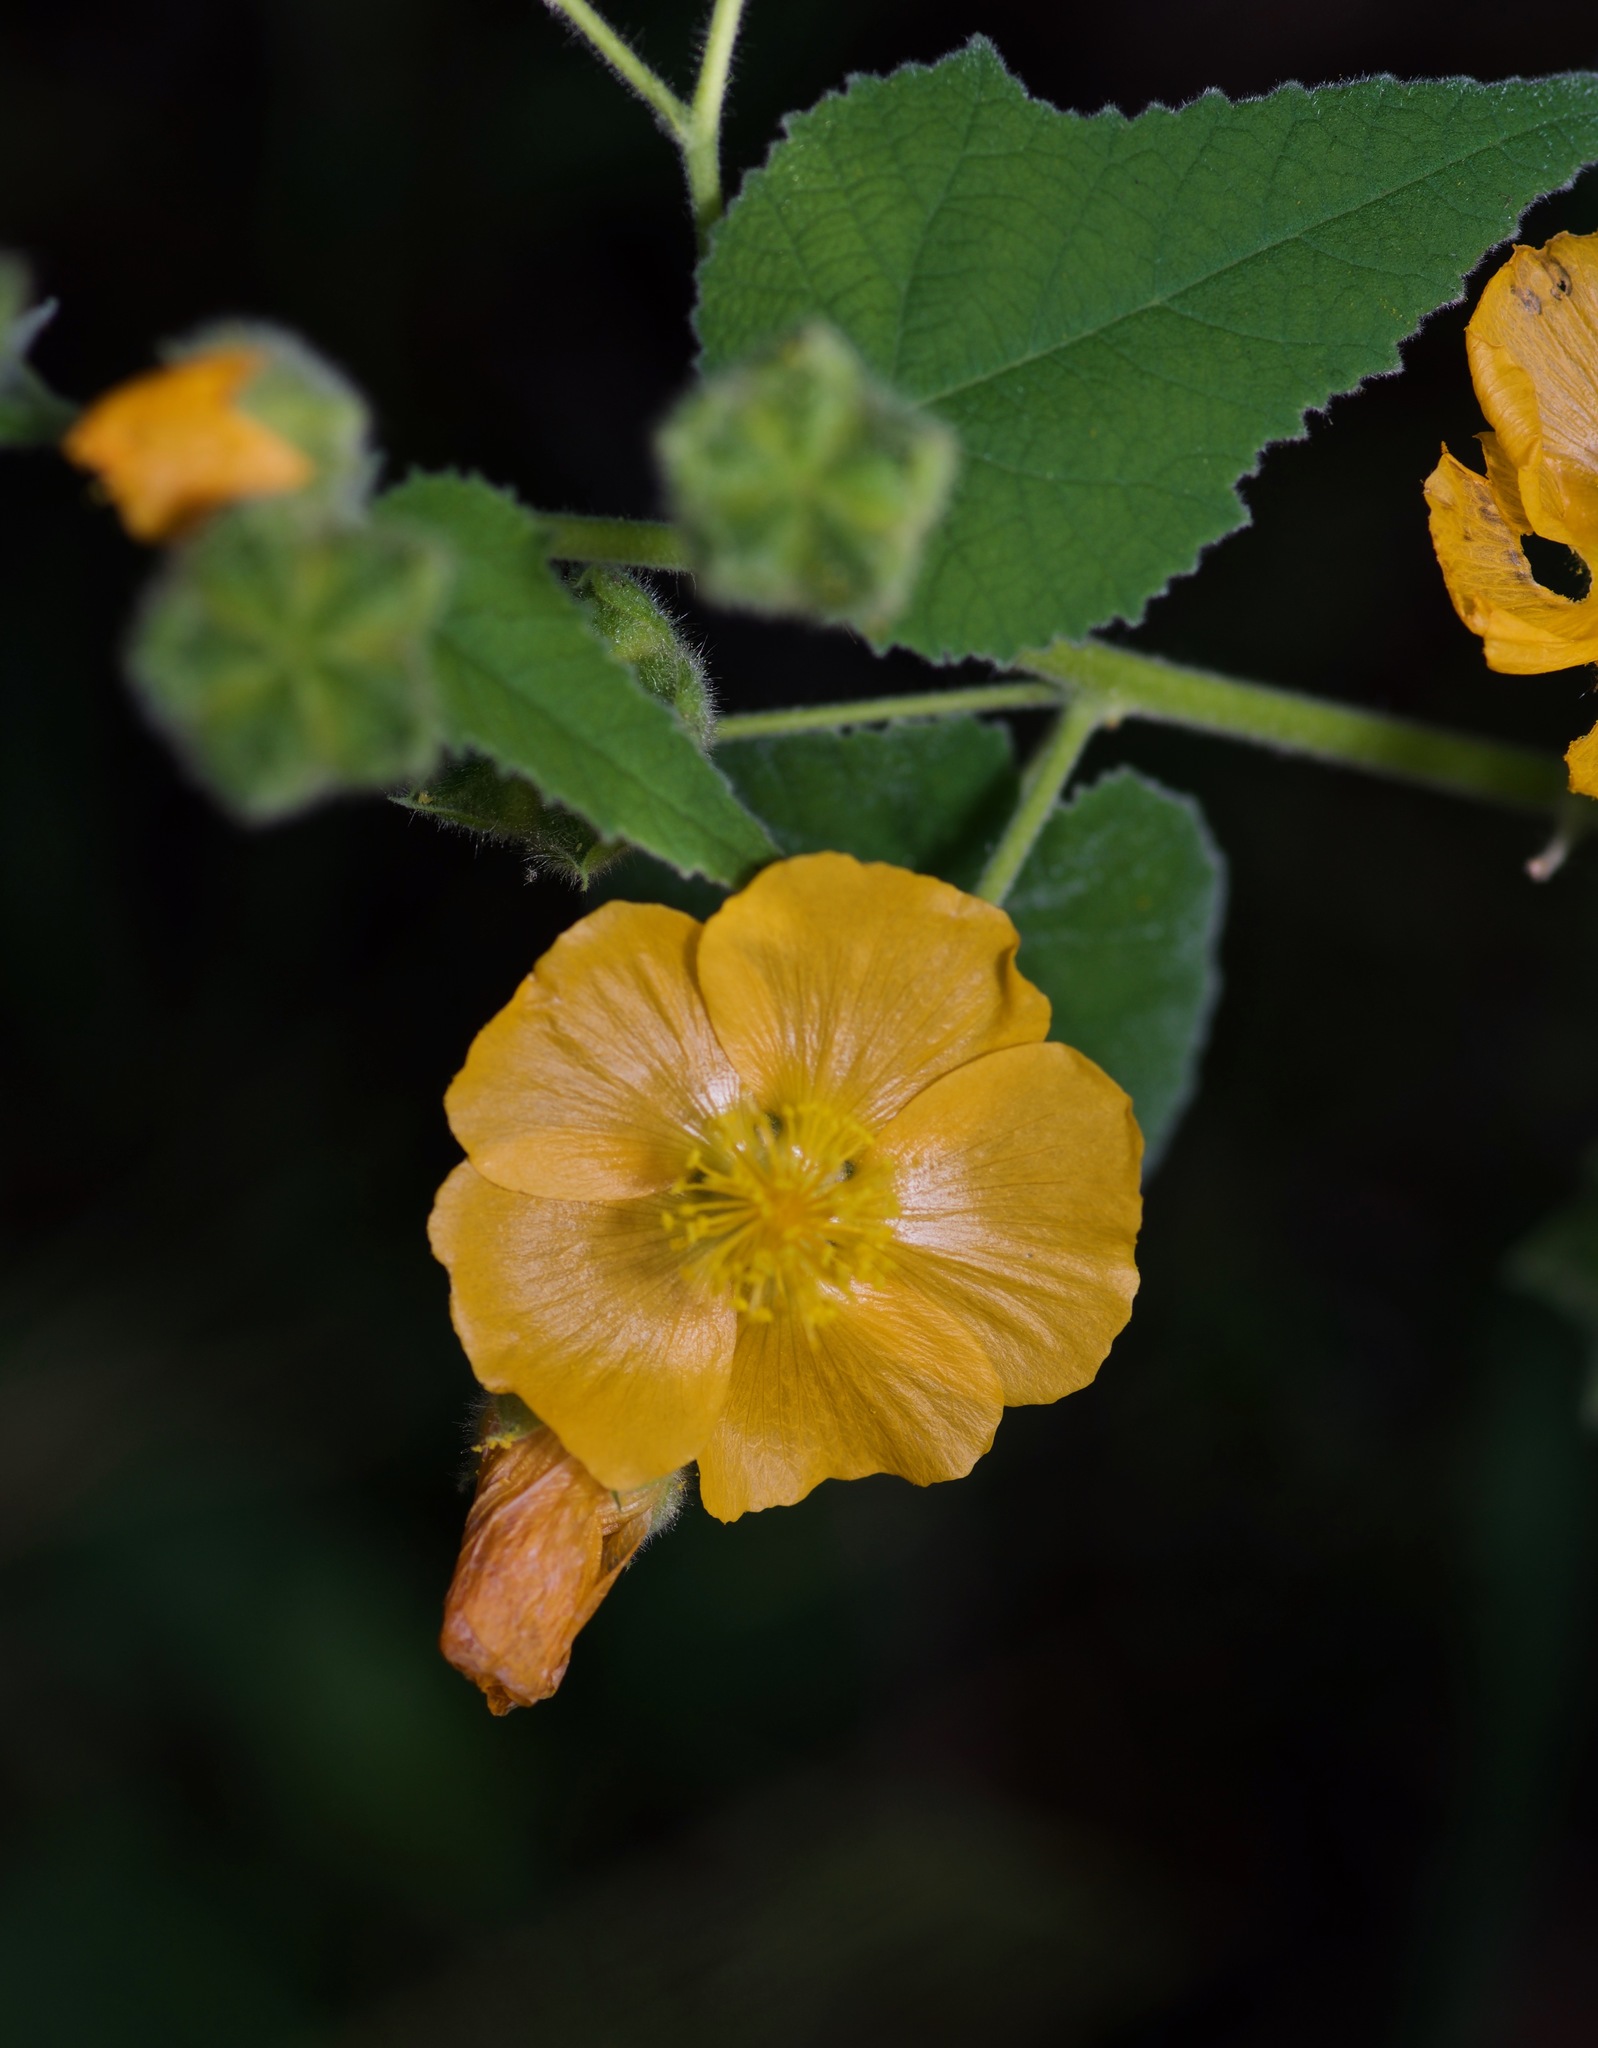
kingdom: Plantae
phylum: Tracheophyta
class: Magnoliopsida
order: Malvales
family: Malvaceae
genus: Allowissadula
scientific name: Allowissadula holosericea
